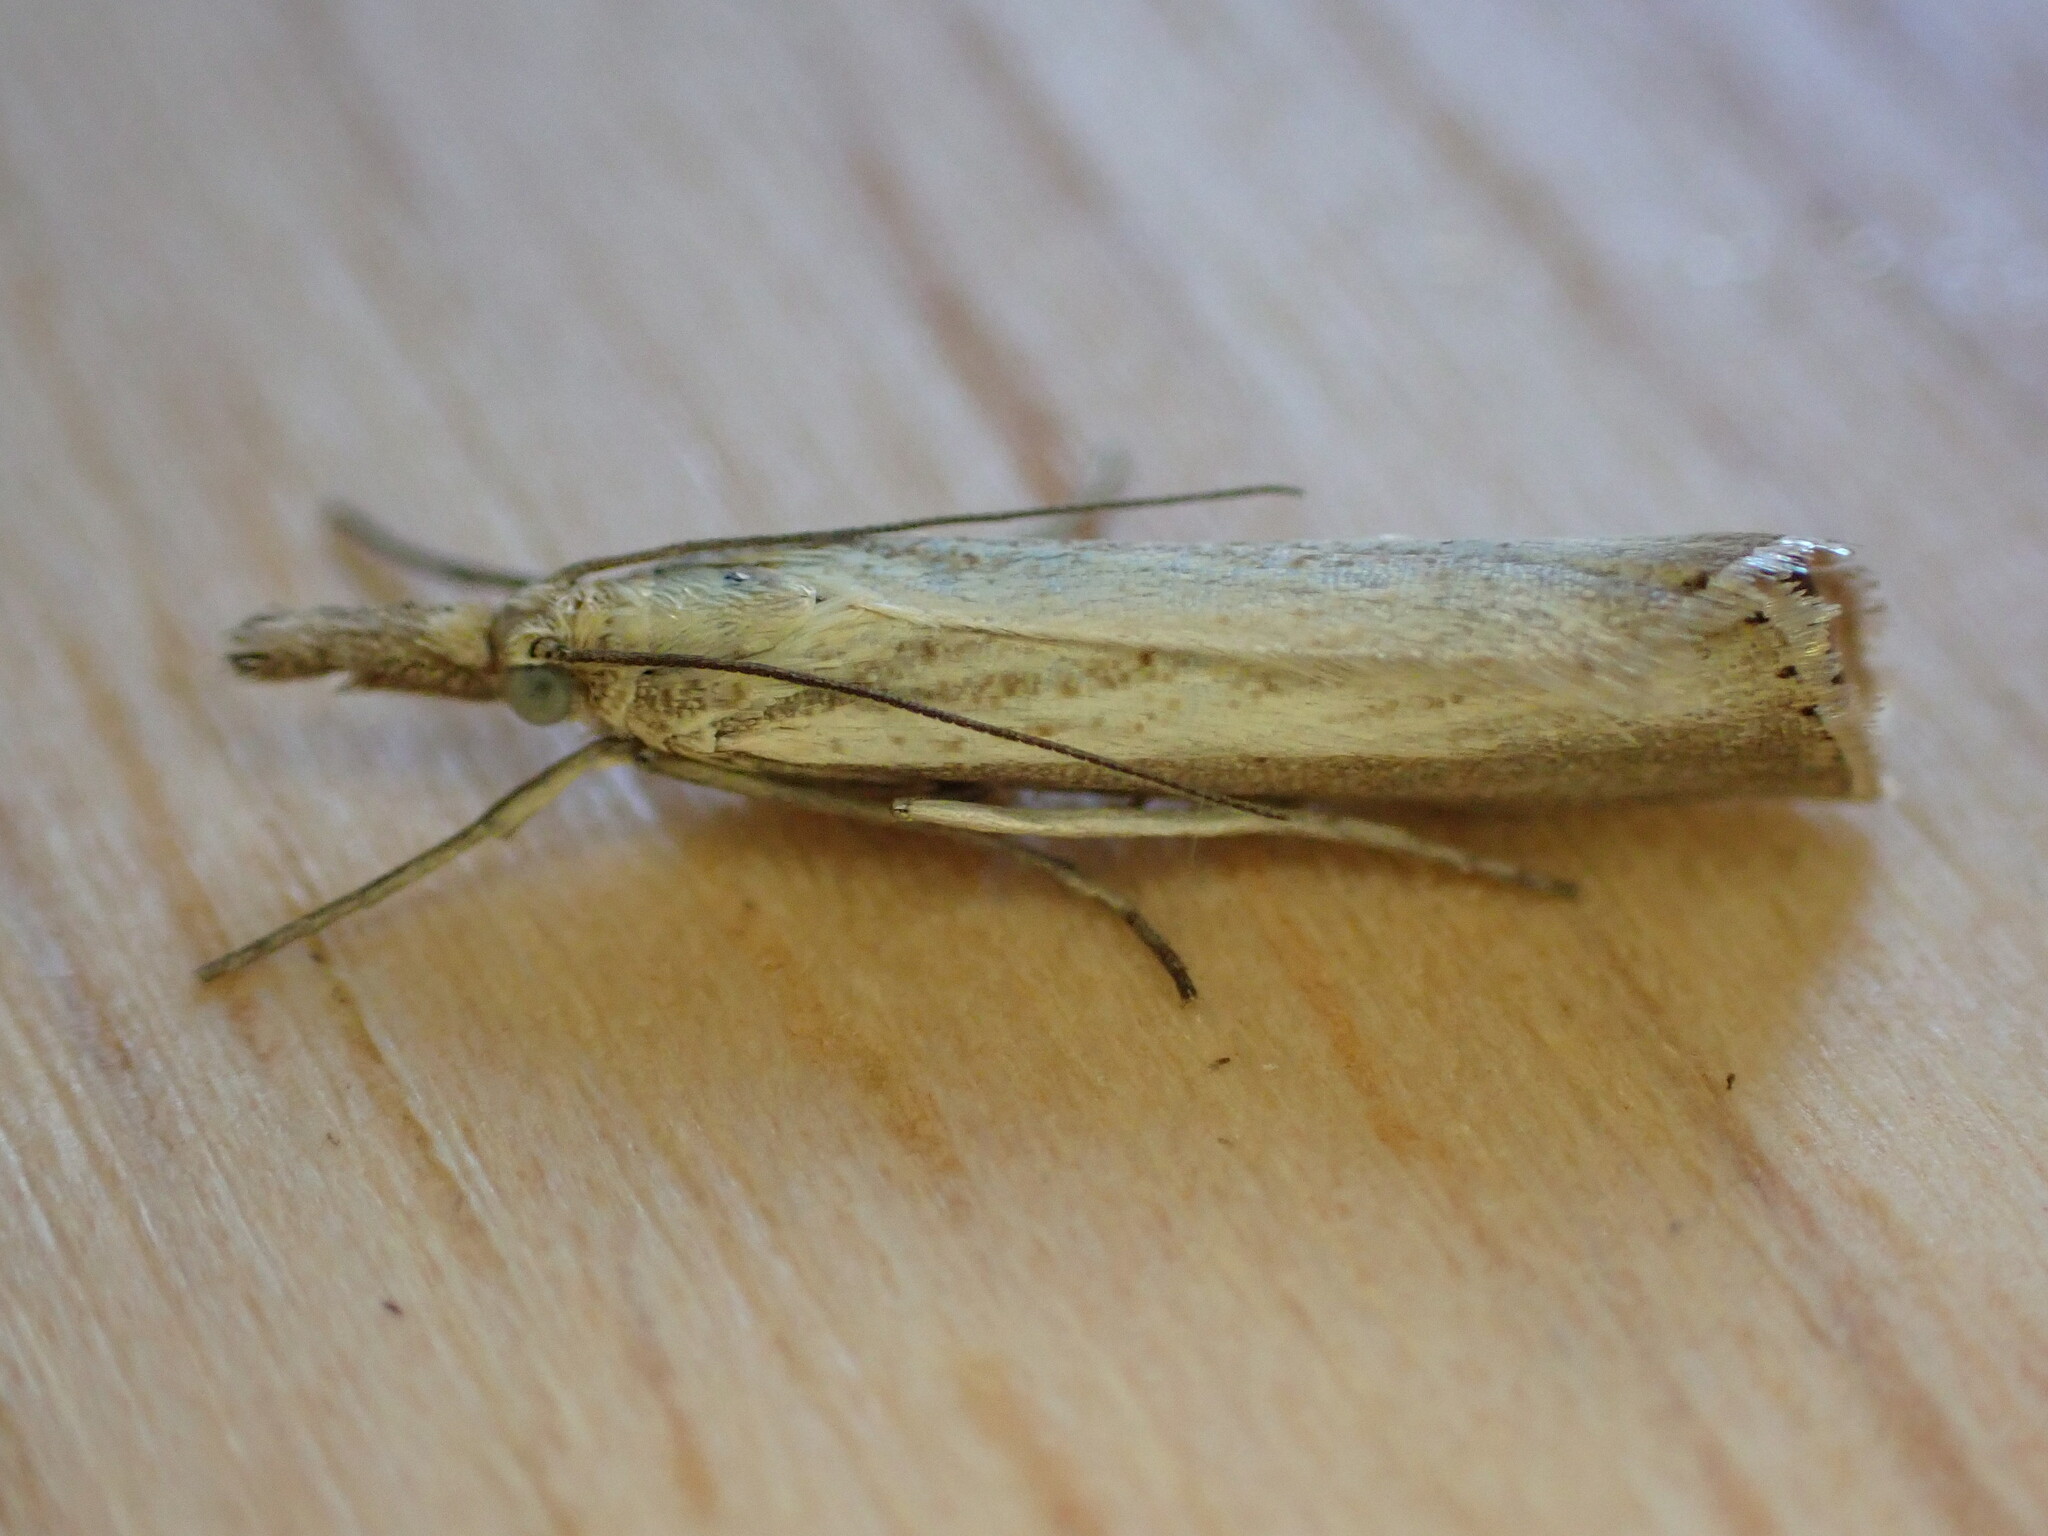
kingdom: Animalia
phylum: Arthropoda
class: Insecta
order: Lepidoptera
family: Crambidae
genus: Agriphila
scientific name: Agriphila straminella
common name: Straw grass-veneer
